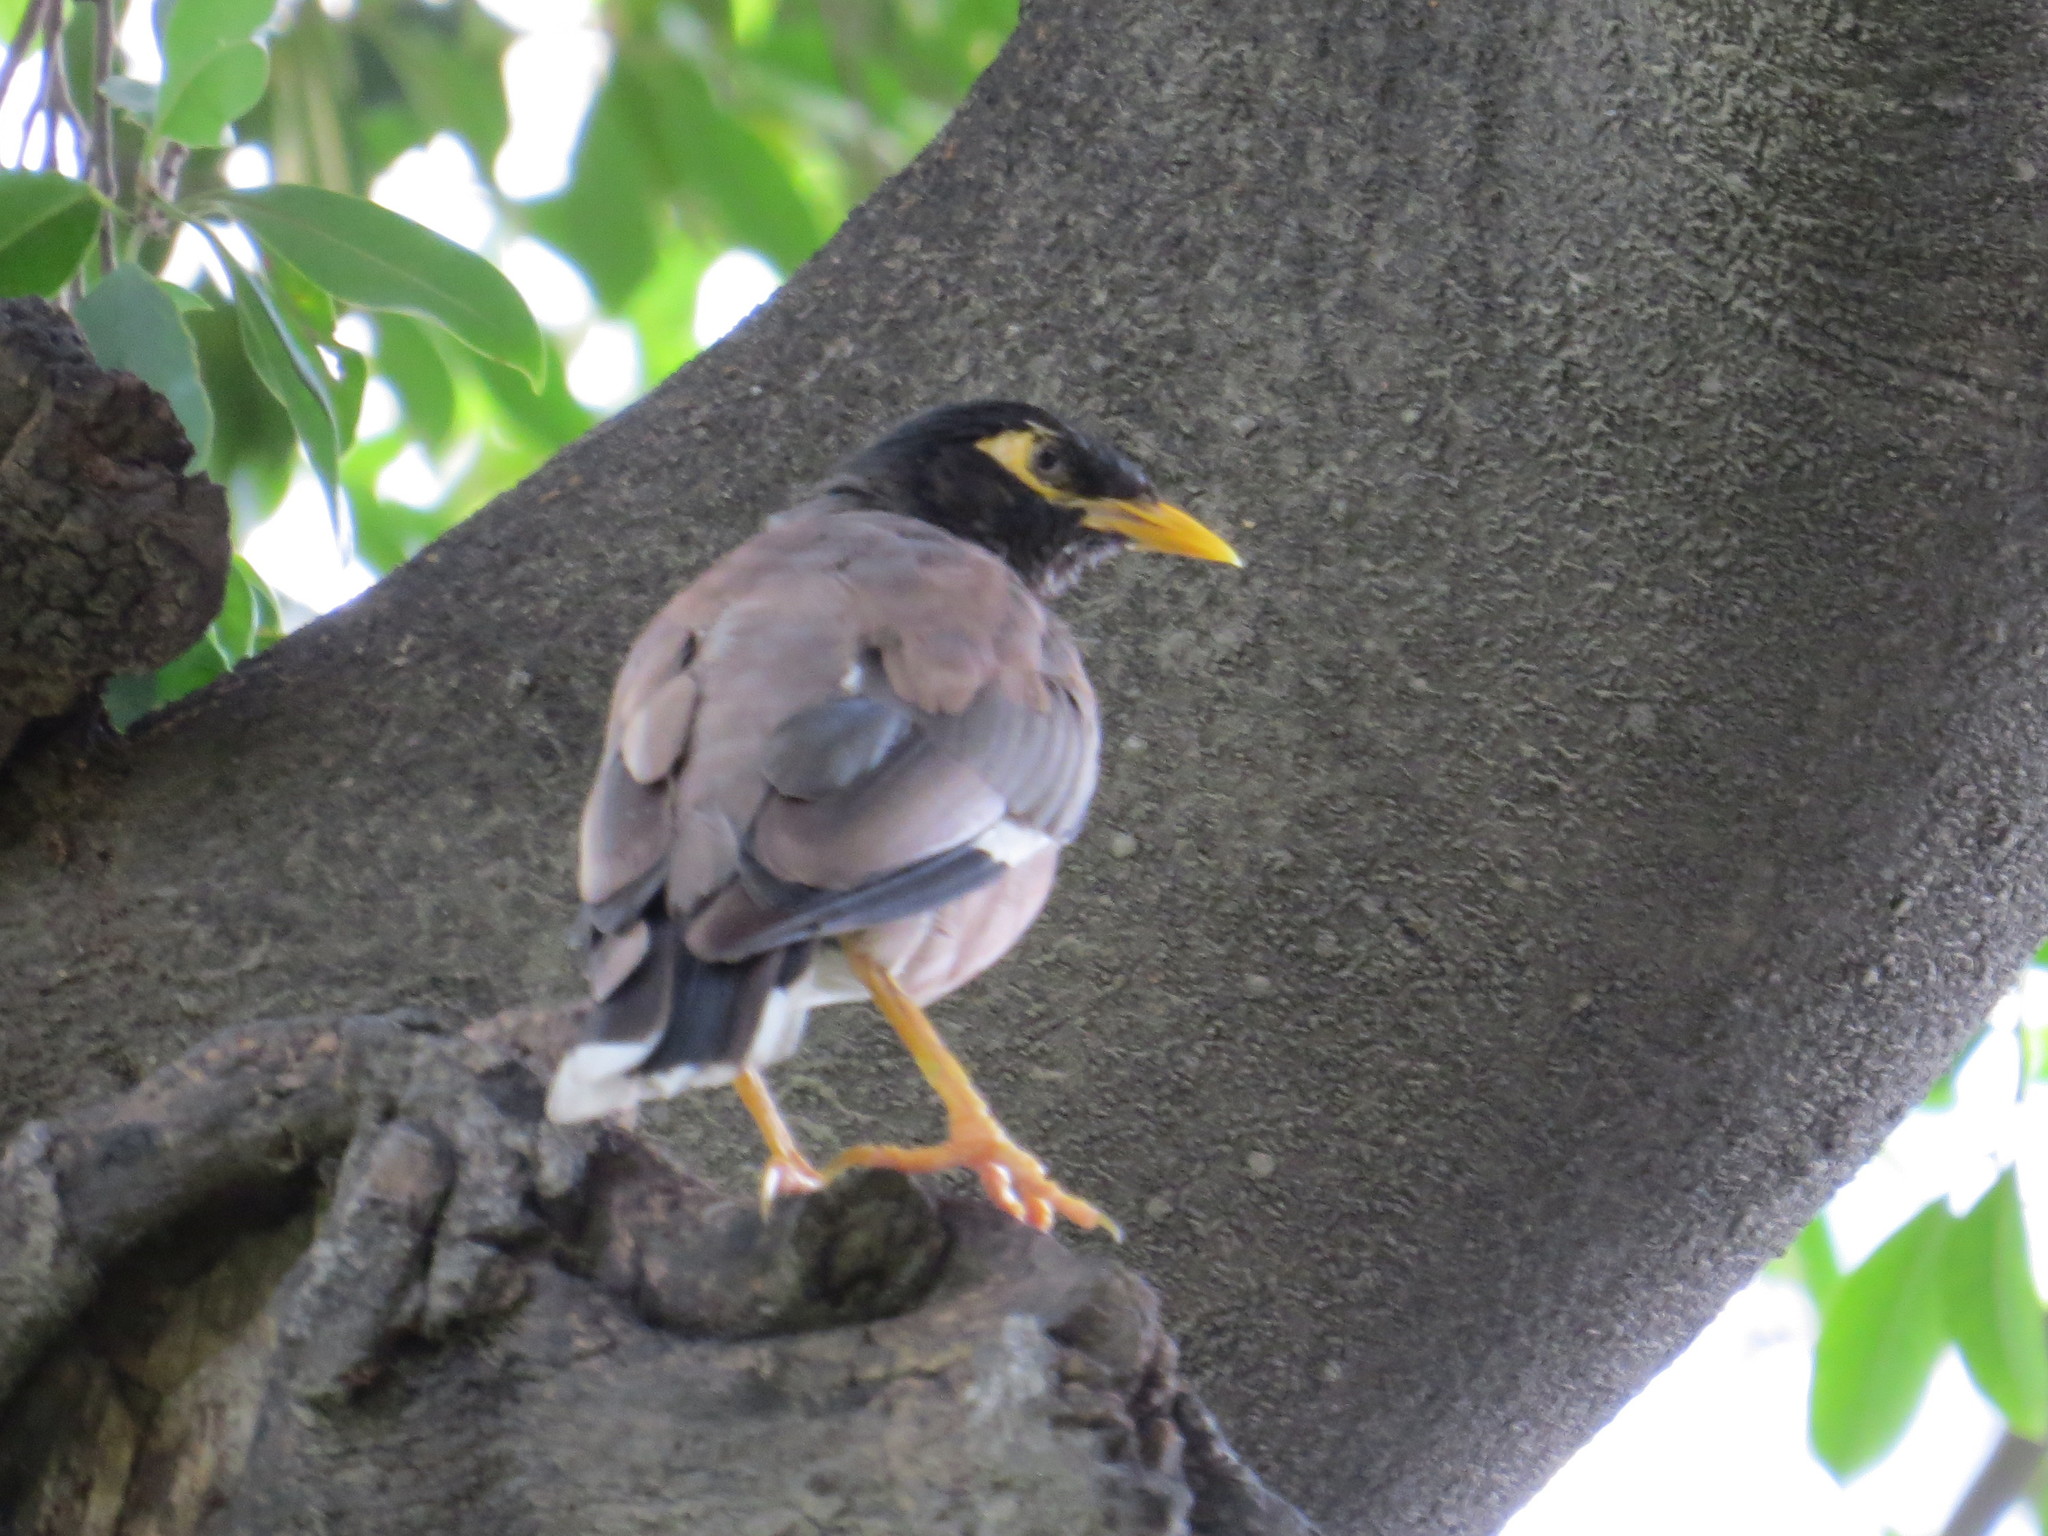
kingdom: Animalia
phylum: Chordata
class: Aves
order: Passeriformes
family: Sturnidae
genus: Acridotheres
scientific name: Acridotheres tristis
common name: Common myna
